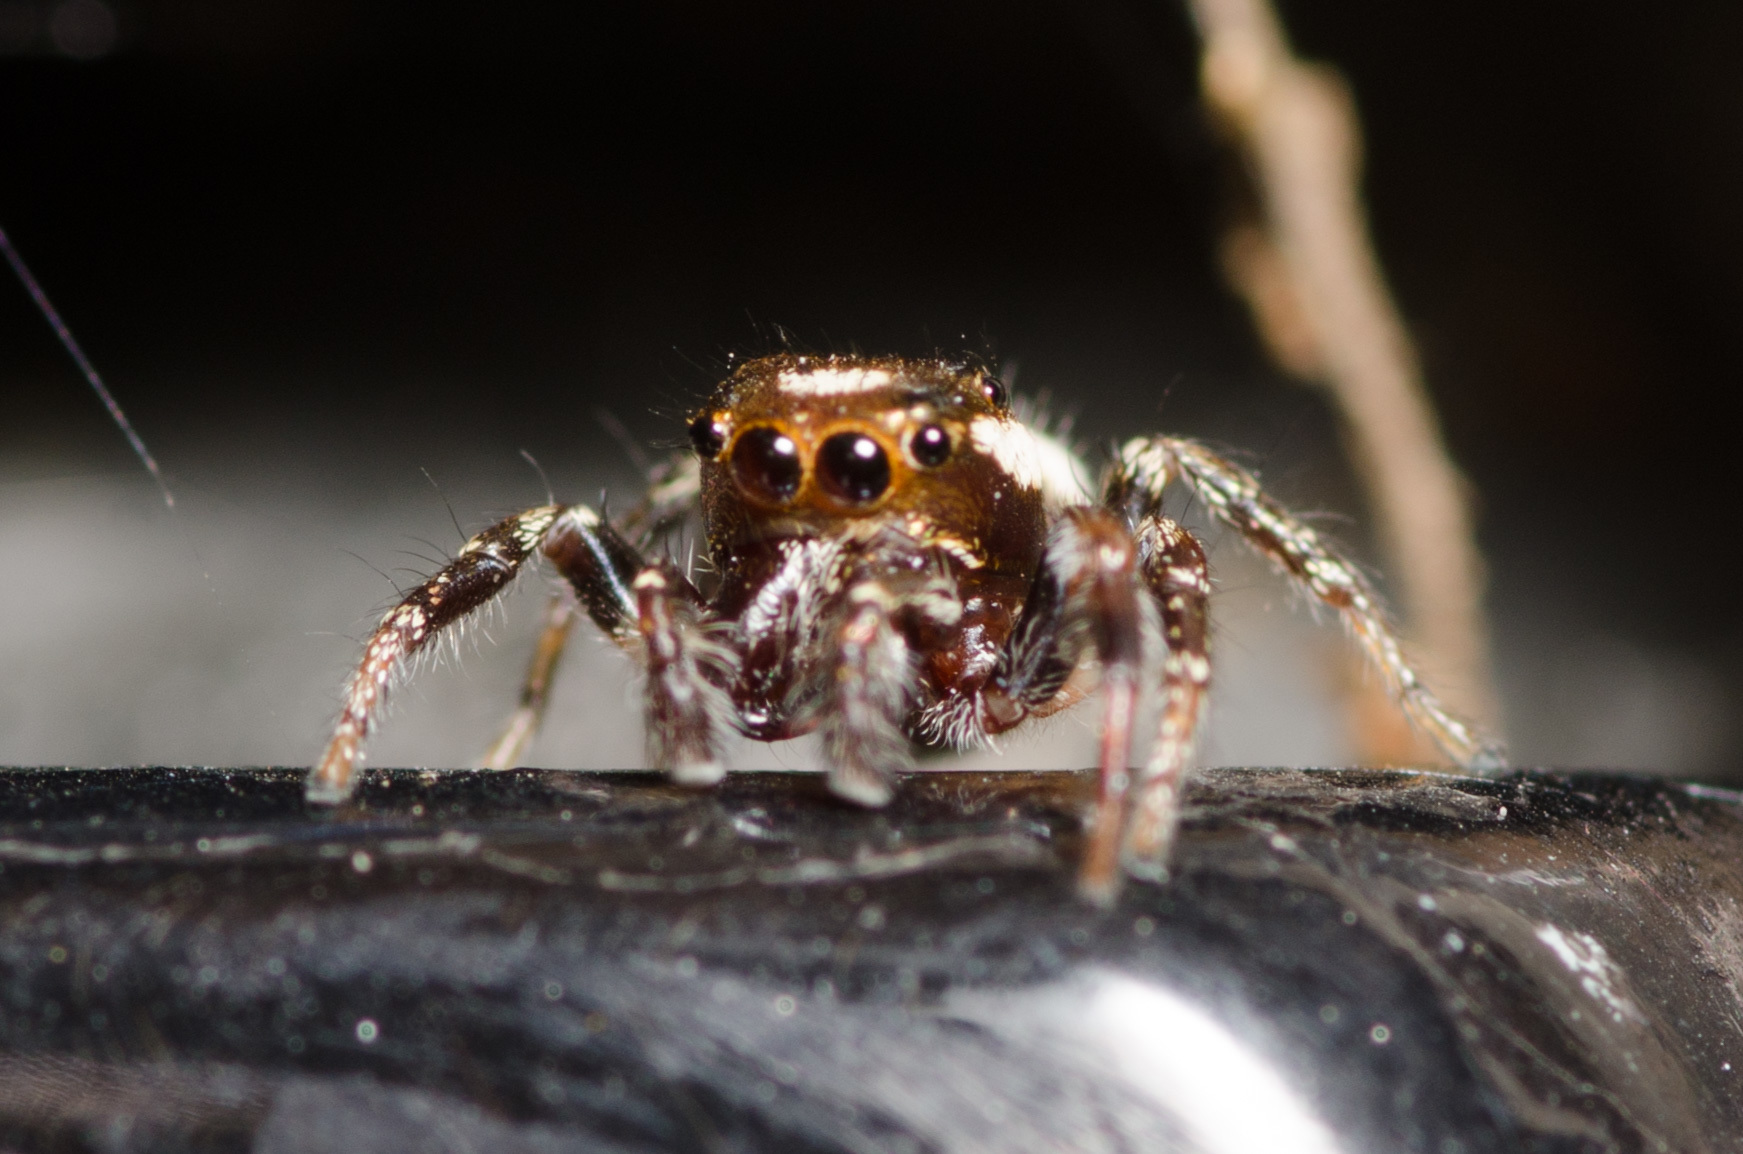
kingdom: Animalia
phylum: Arthropoda
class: Arachnida
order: Araneae
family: Salticidae
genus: Eris
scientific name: Eris militaris
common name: Bronze jumper
